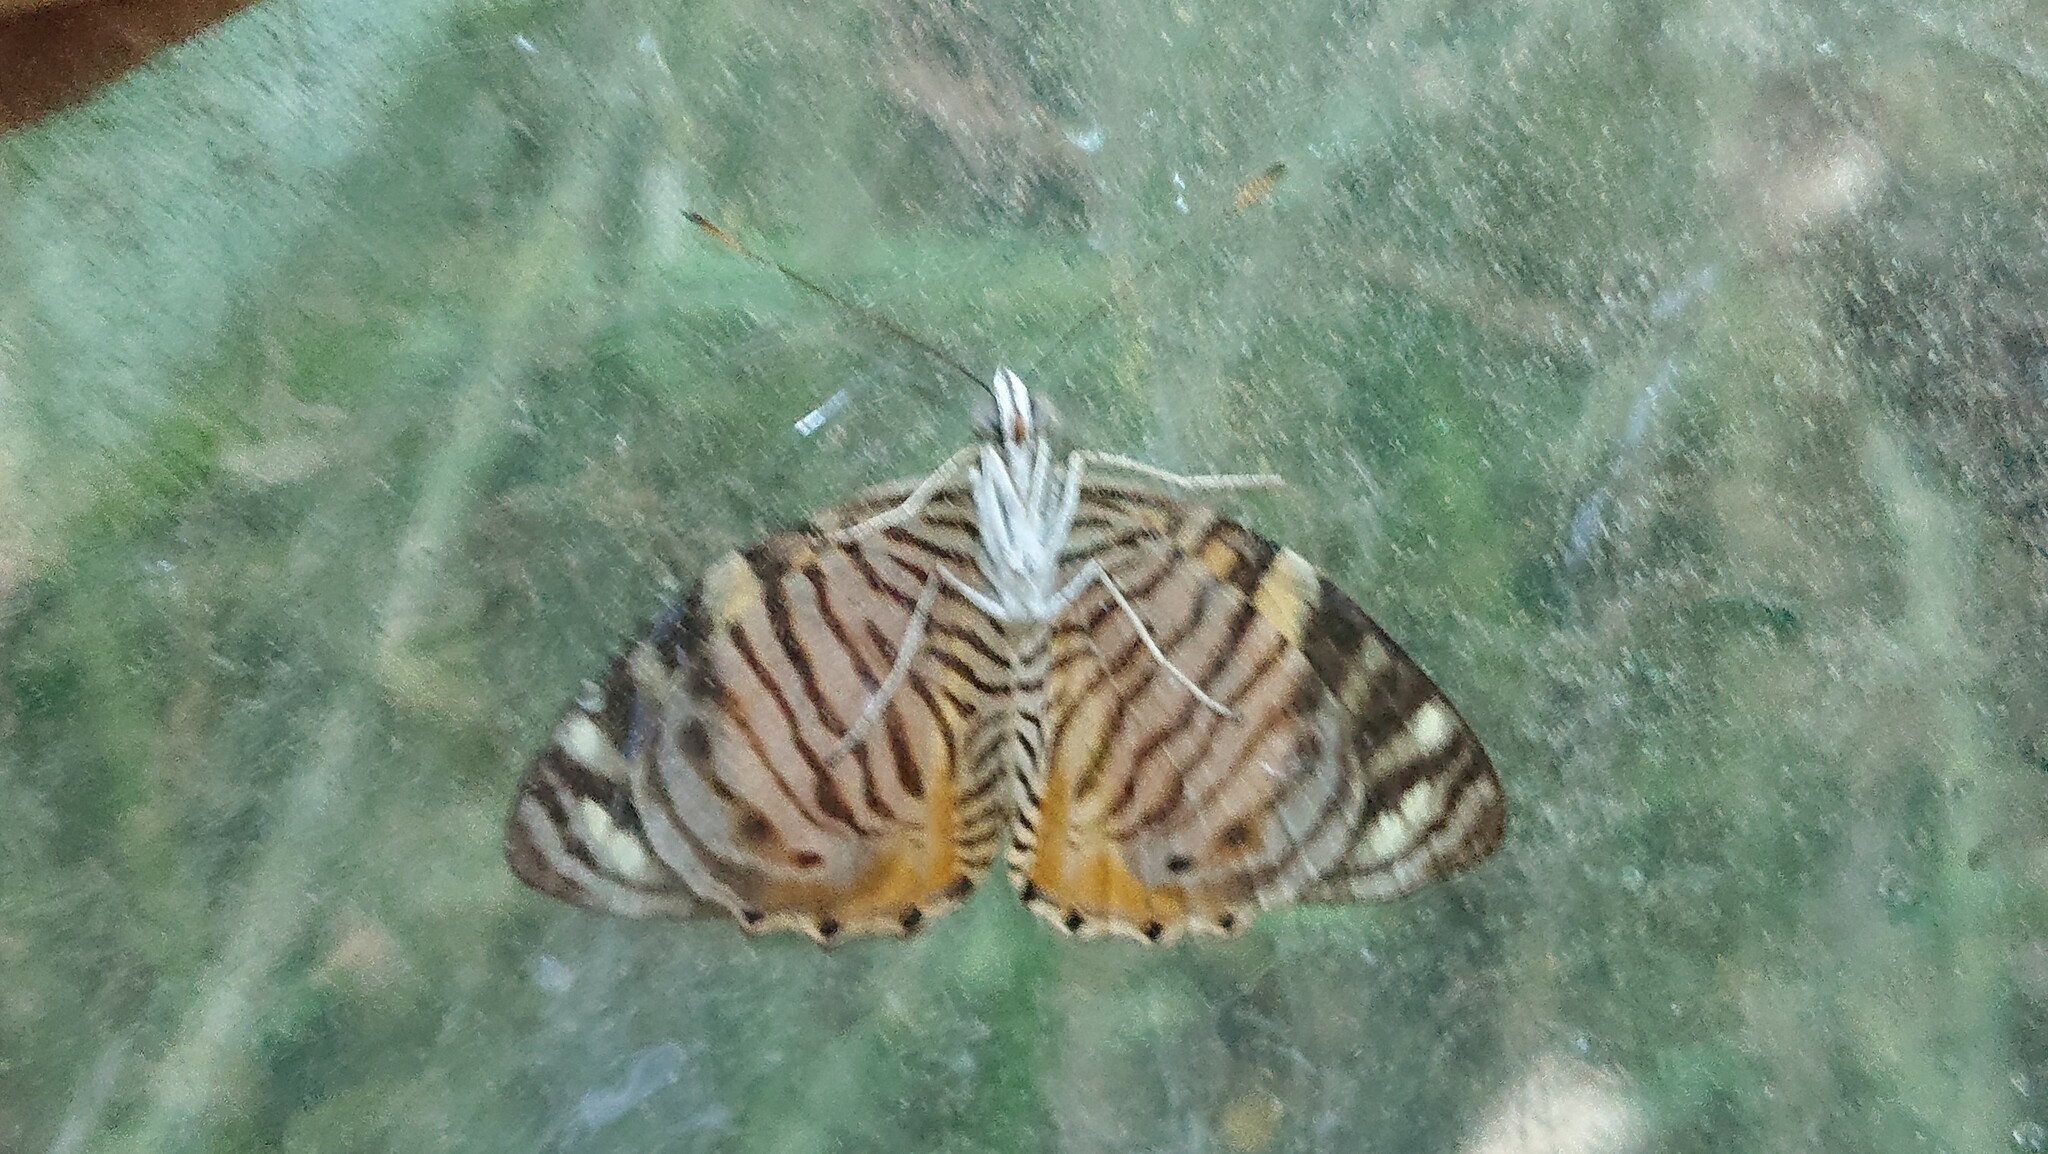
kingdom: Animalia
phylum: Arthropoda
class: Insecta
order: Lepidoptera
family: Nymphalidae
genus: Callizona
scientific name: Callizona acesta
